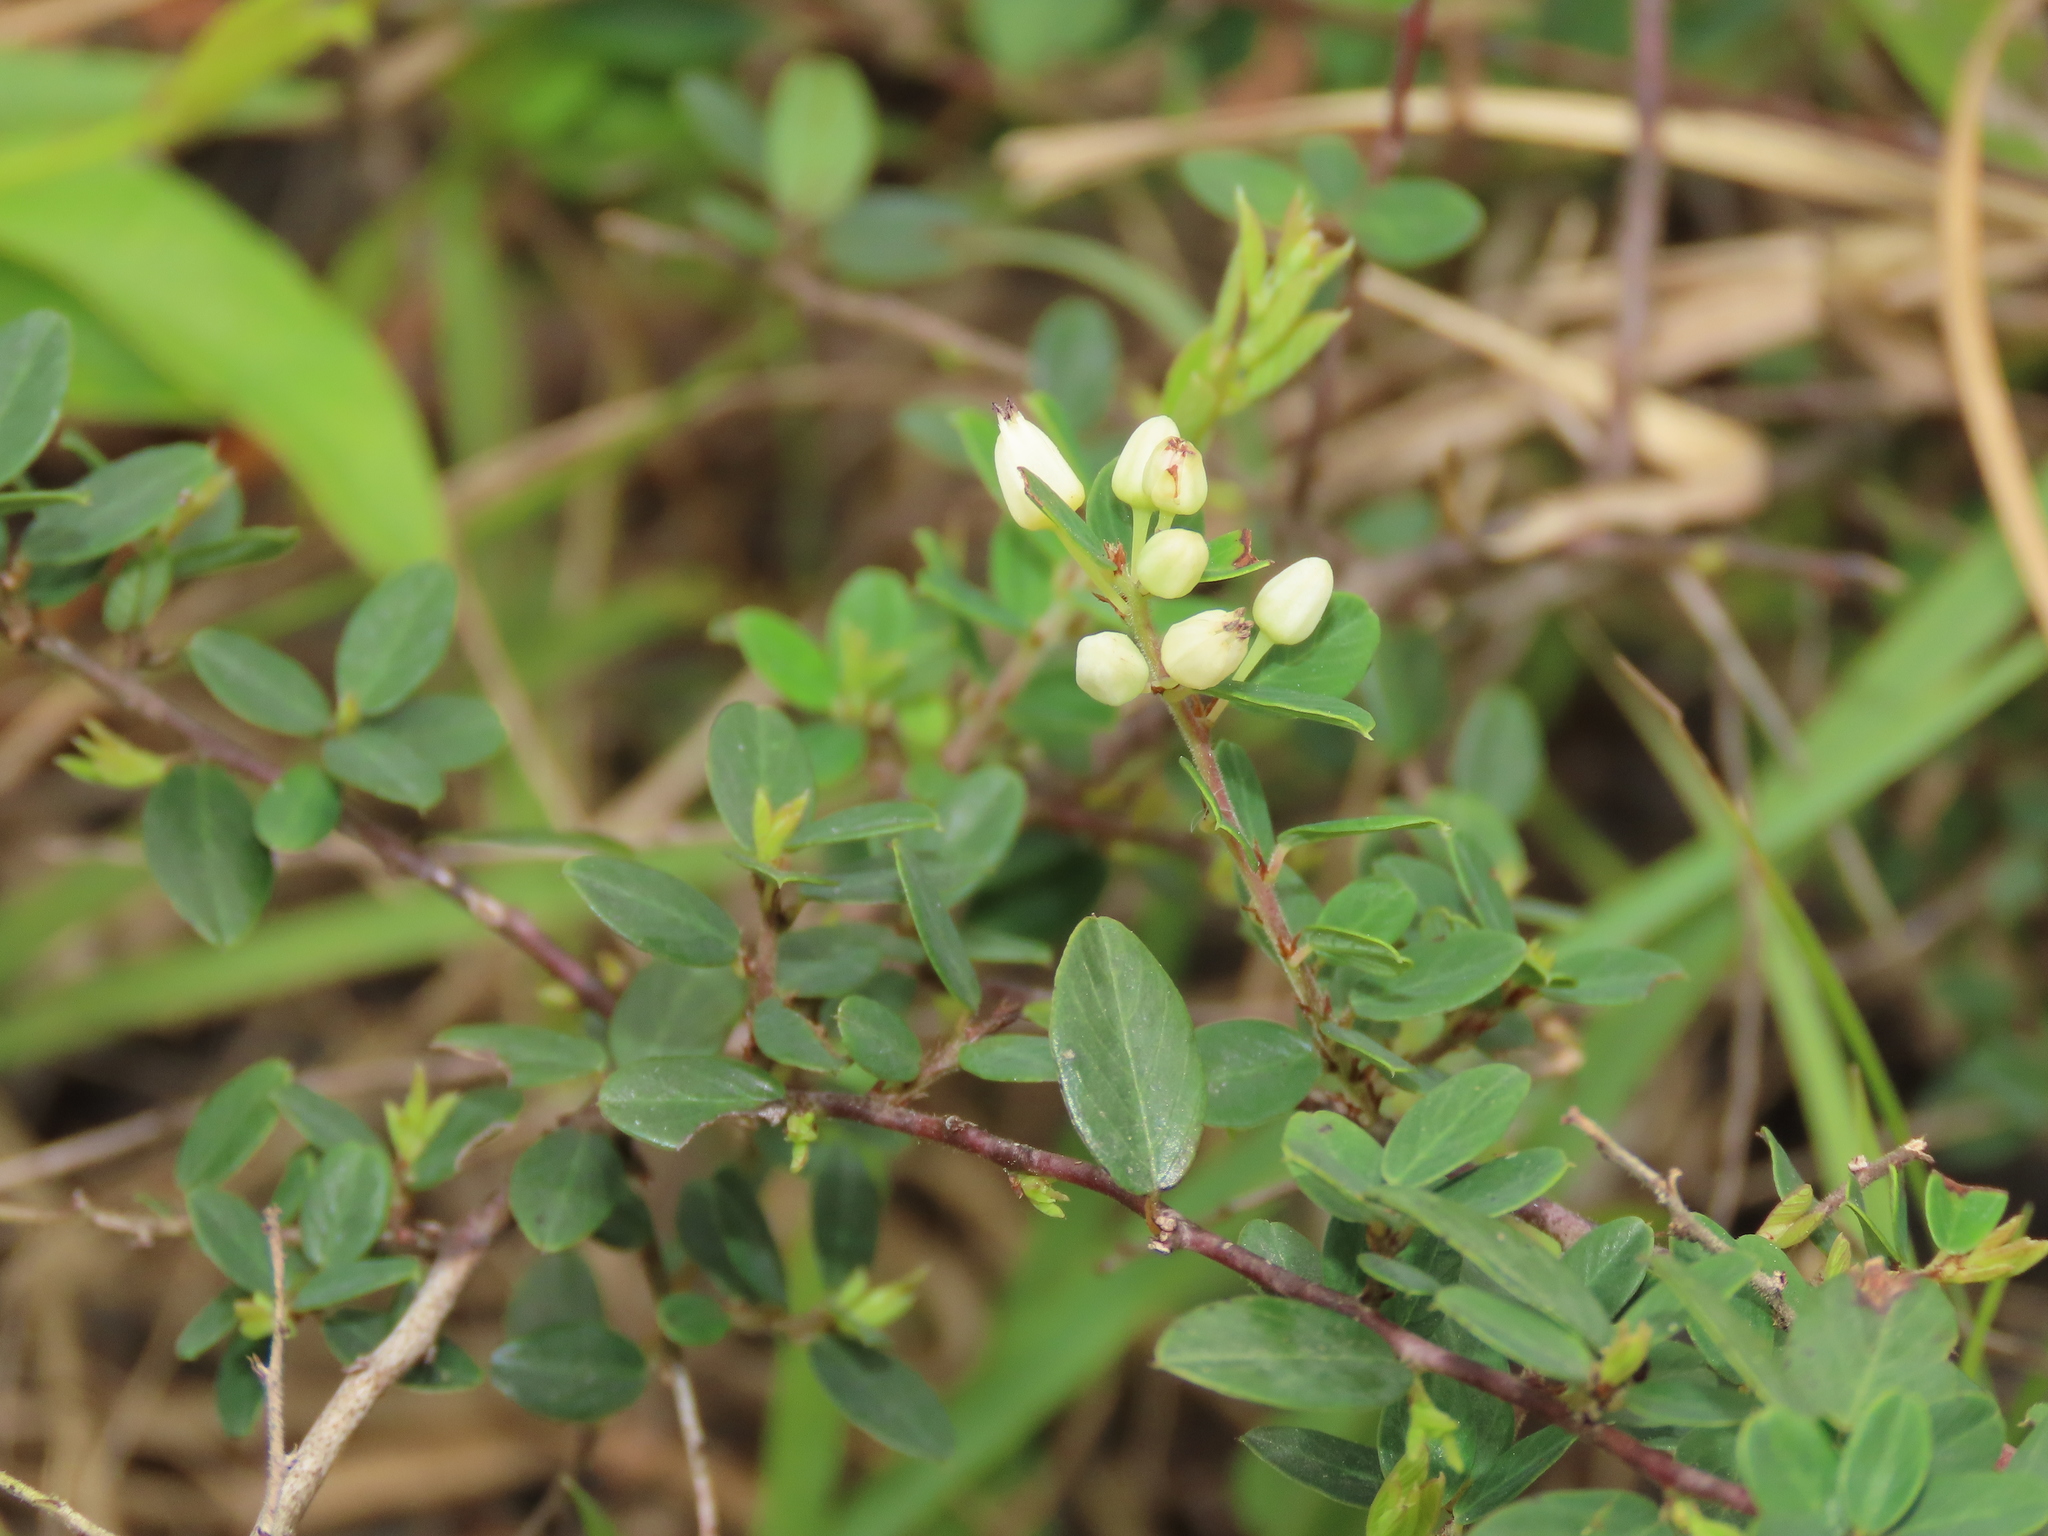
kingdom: Plantae
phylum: Tracheophyta
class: Magnoliopsida
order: Rosales
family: Rhamnaceae
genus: Berchemia
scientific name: Berchemia lineata
